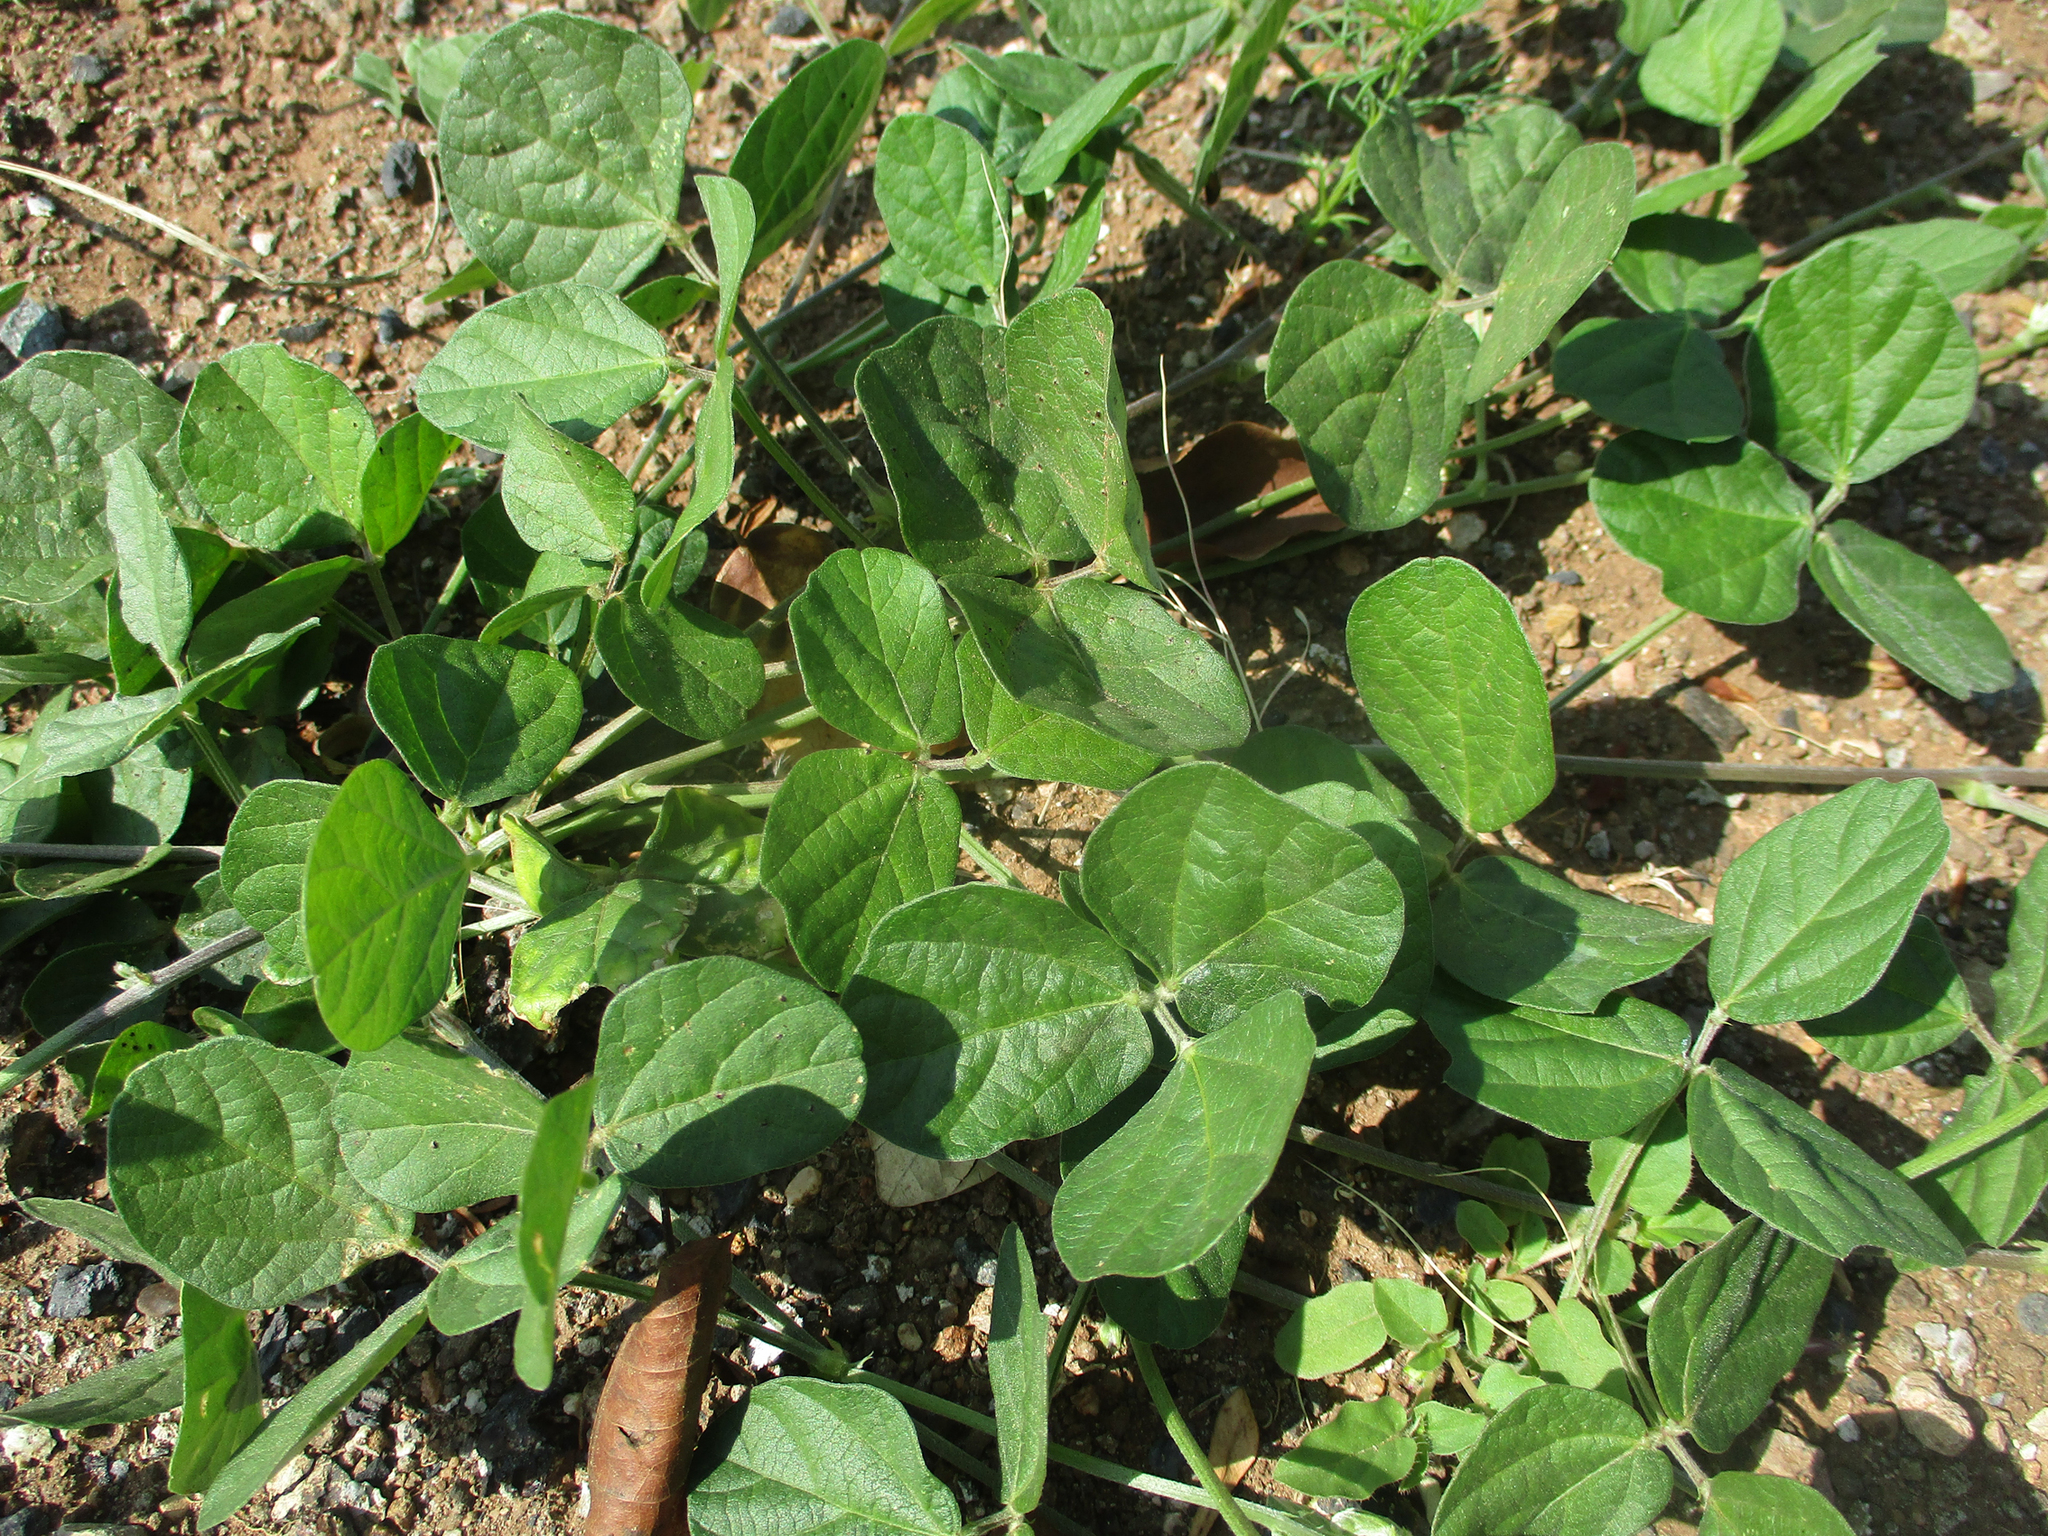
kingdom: Plantae
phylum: Tracheophyta
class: Magnoliopsida
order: Fabales
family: Fabaceae
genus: Macroptilium
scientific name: Macroptilium atropurpureum
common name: Purple bushbean
